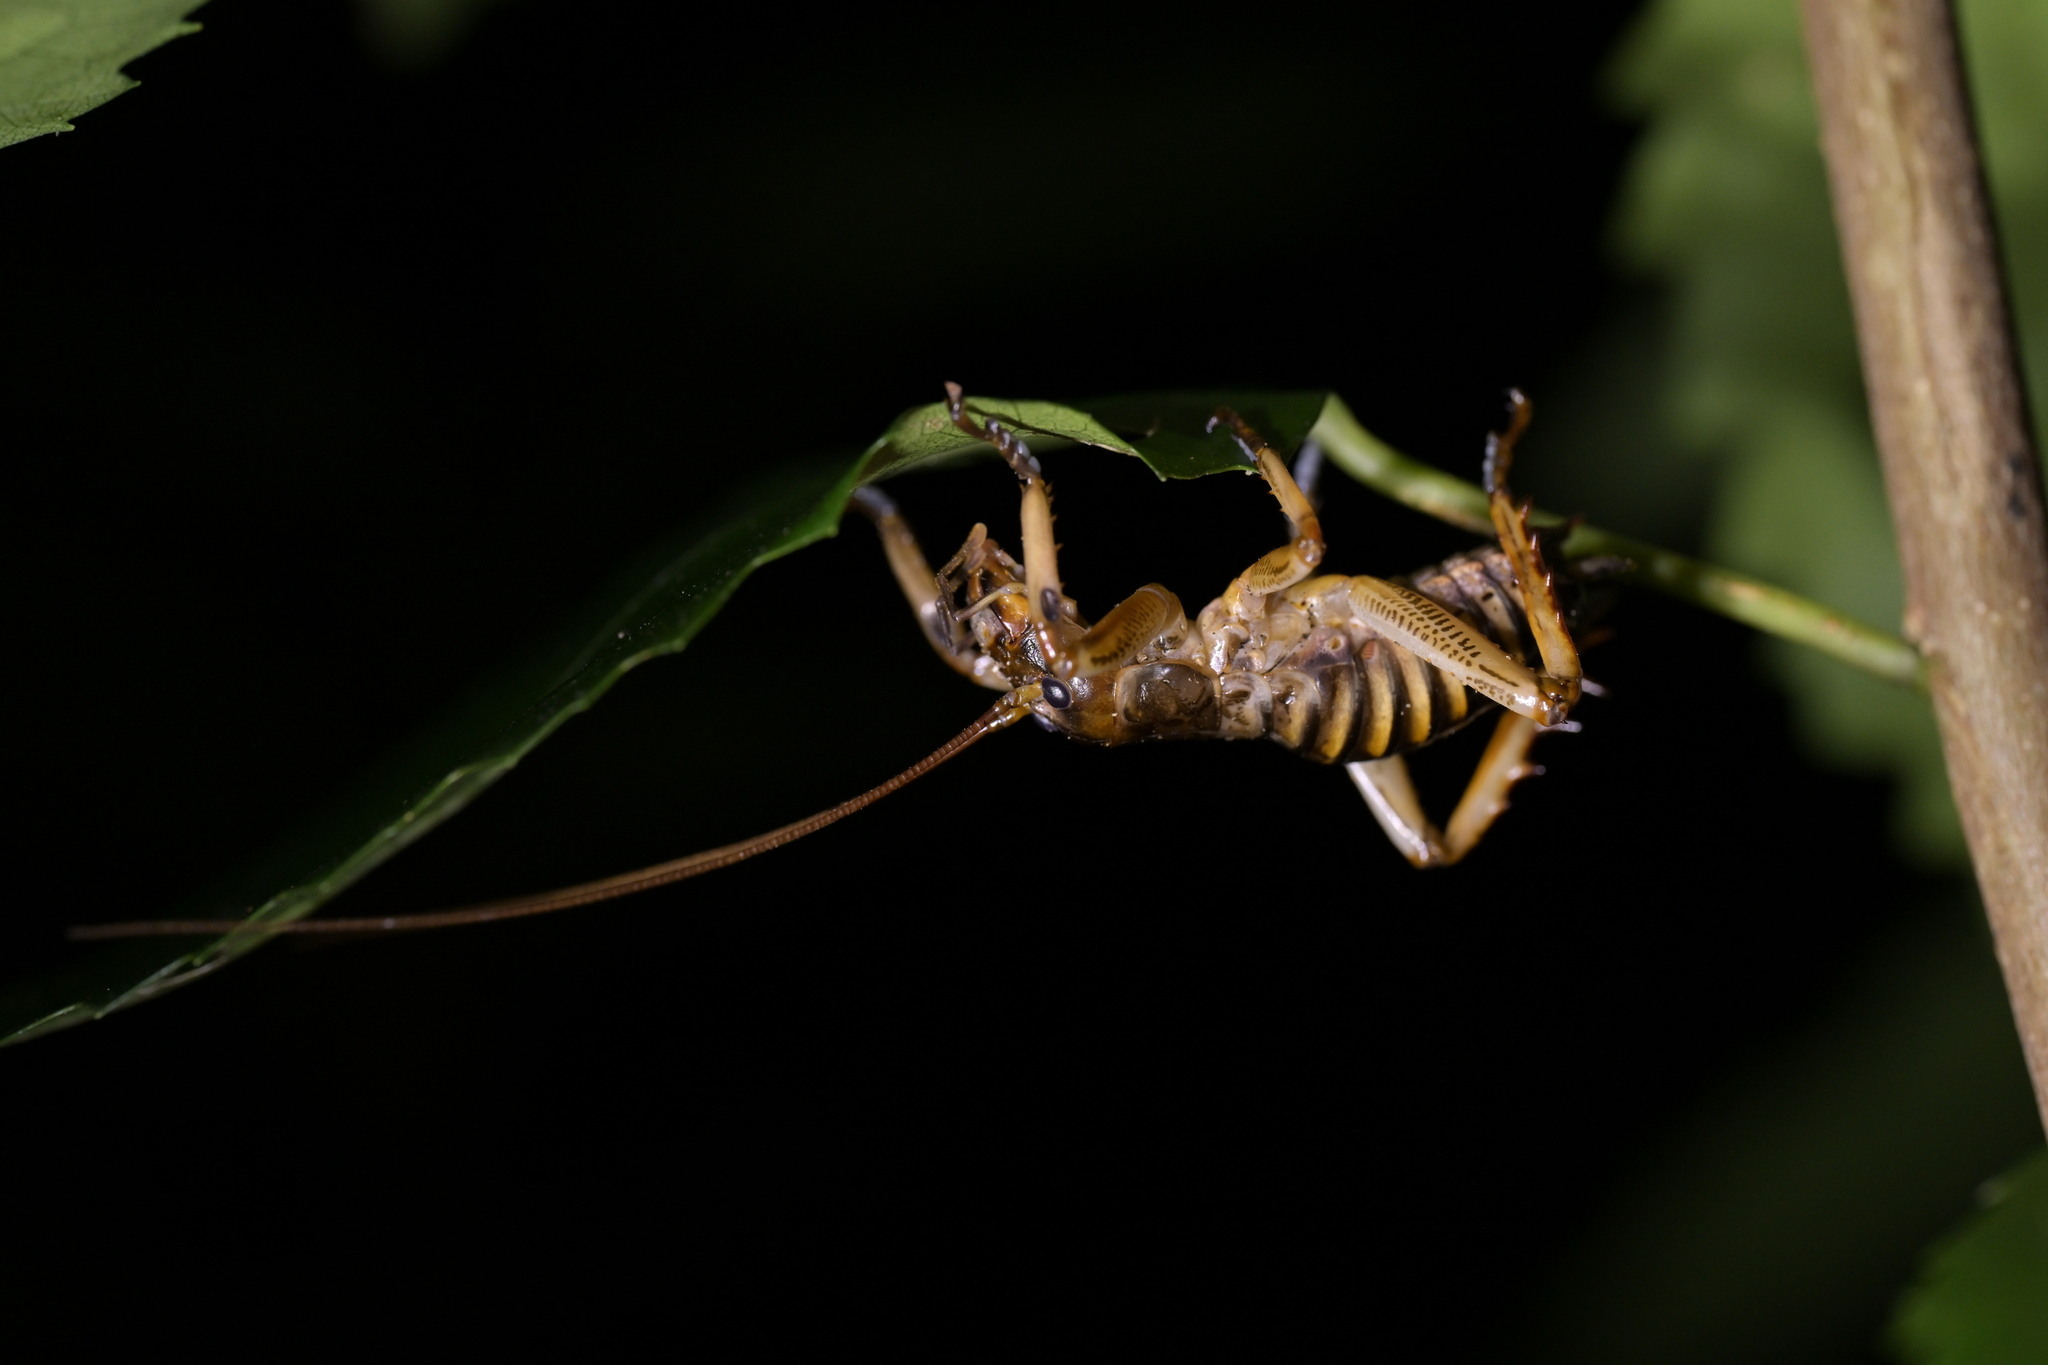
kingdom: Animalia
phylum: Arthropoda
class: Insecta
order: Orthoptera
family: Anostostomatidae
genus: Hemideina
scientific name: Hemideina crassidens
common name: Wellington tree weta
